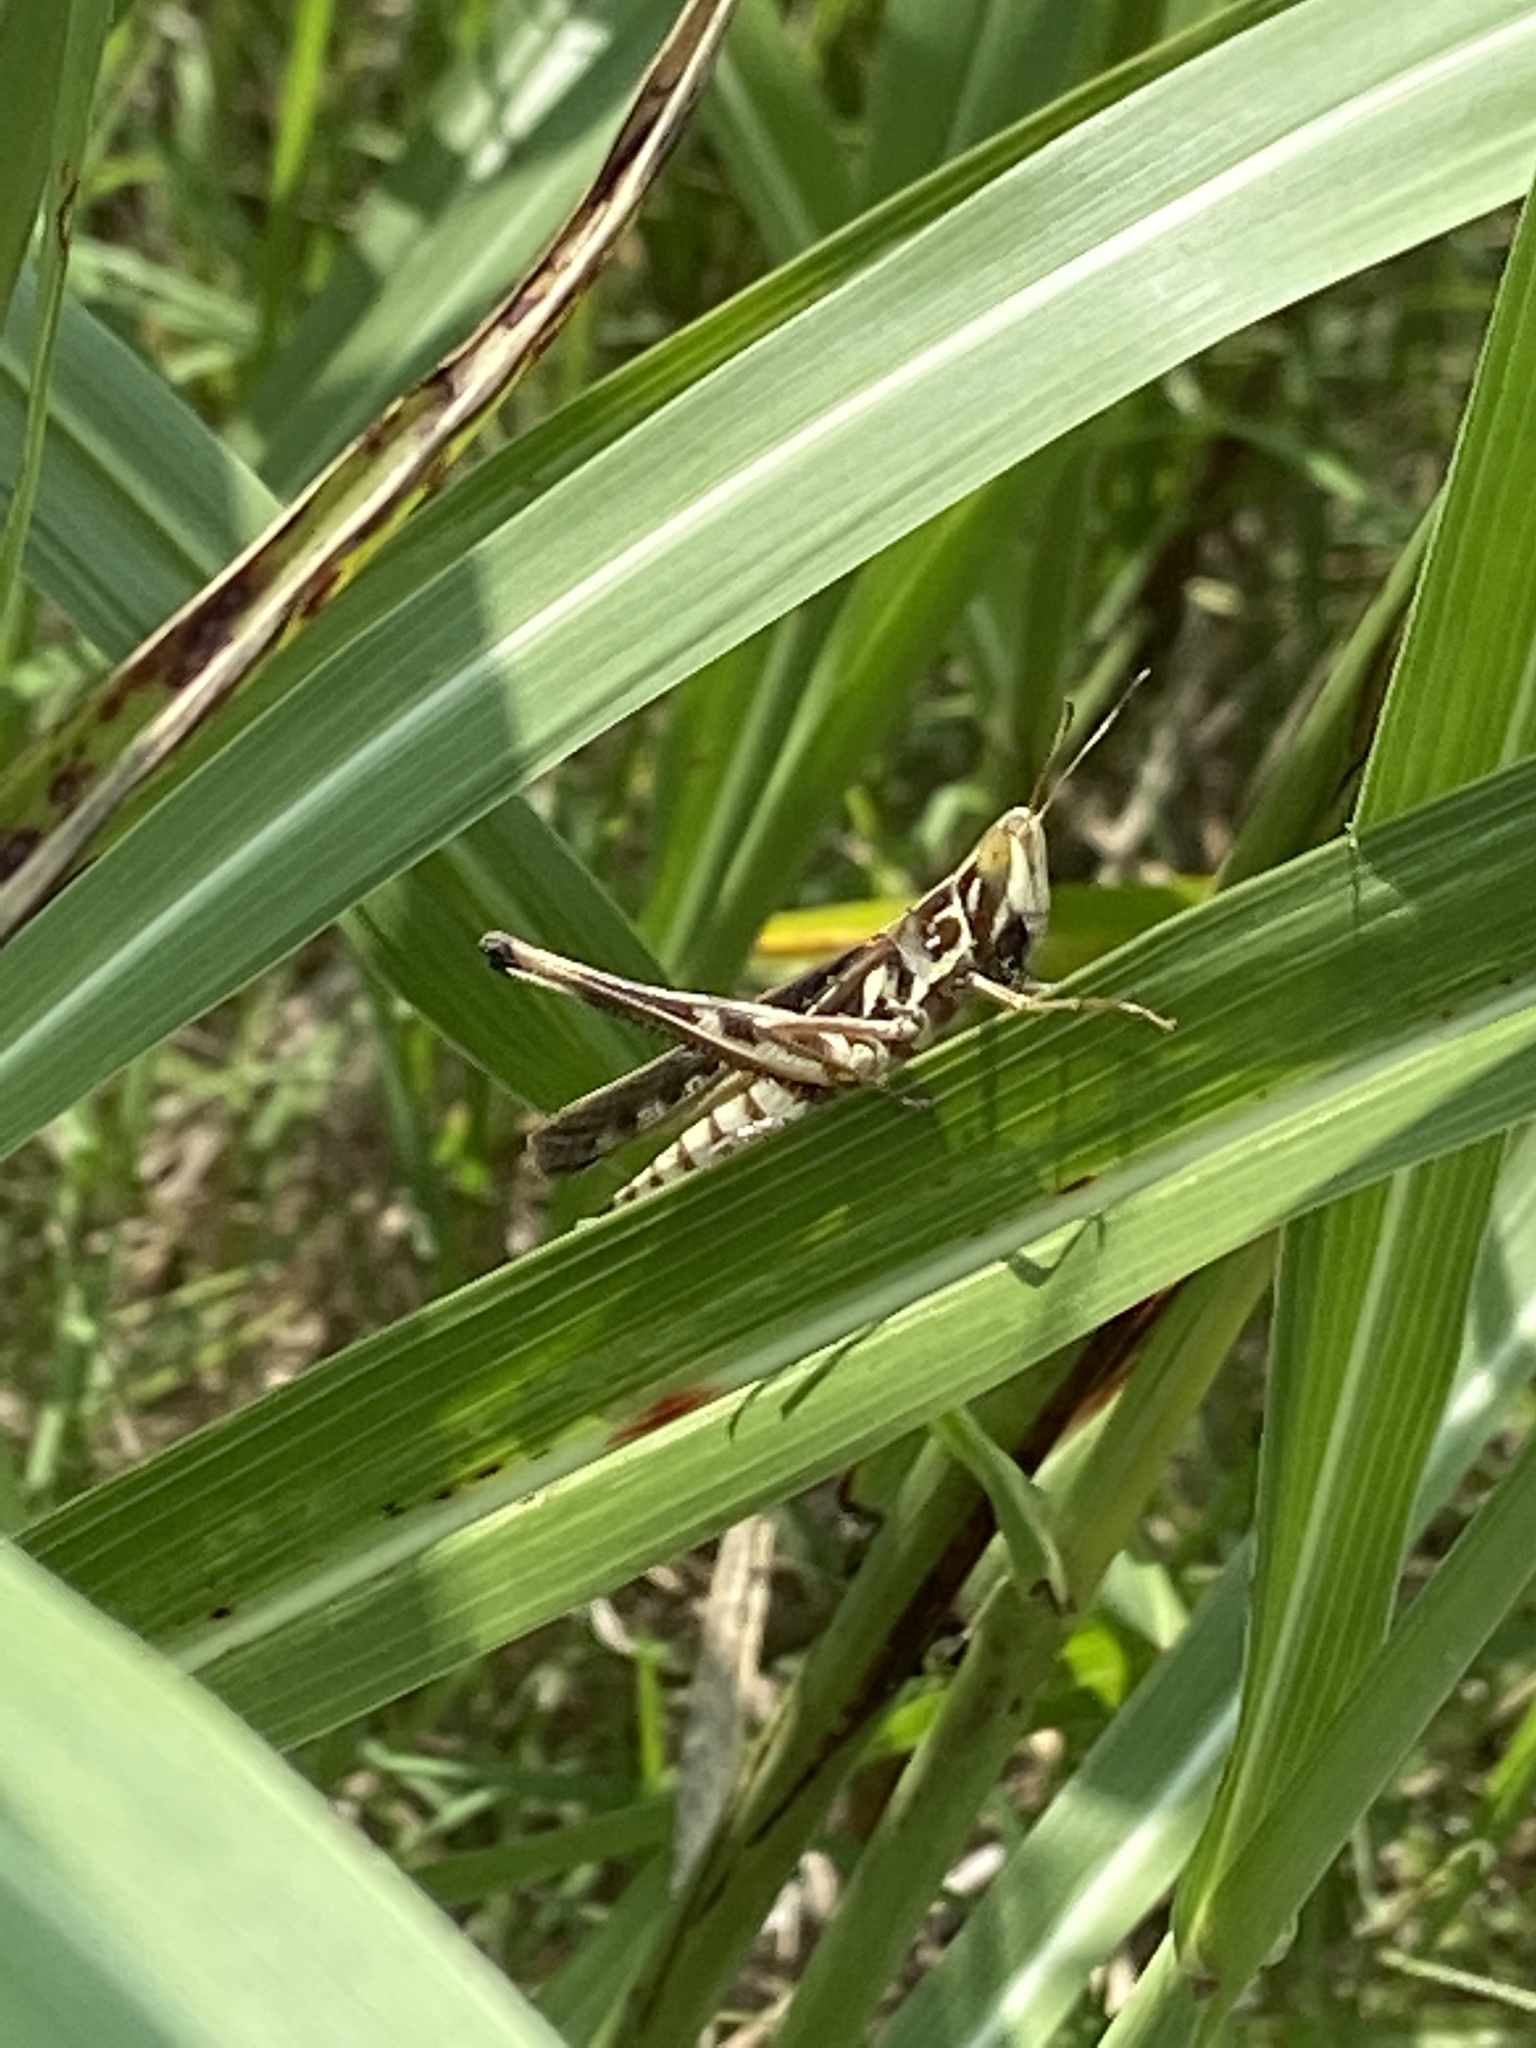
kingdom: Animalia
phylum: Arthropoda
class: Insecta
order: Orthoptera
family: Acrididae
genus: Syrbula
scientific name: Syrbula admirabilis
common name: Handsome grasshopper
